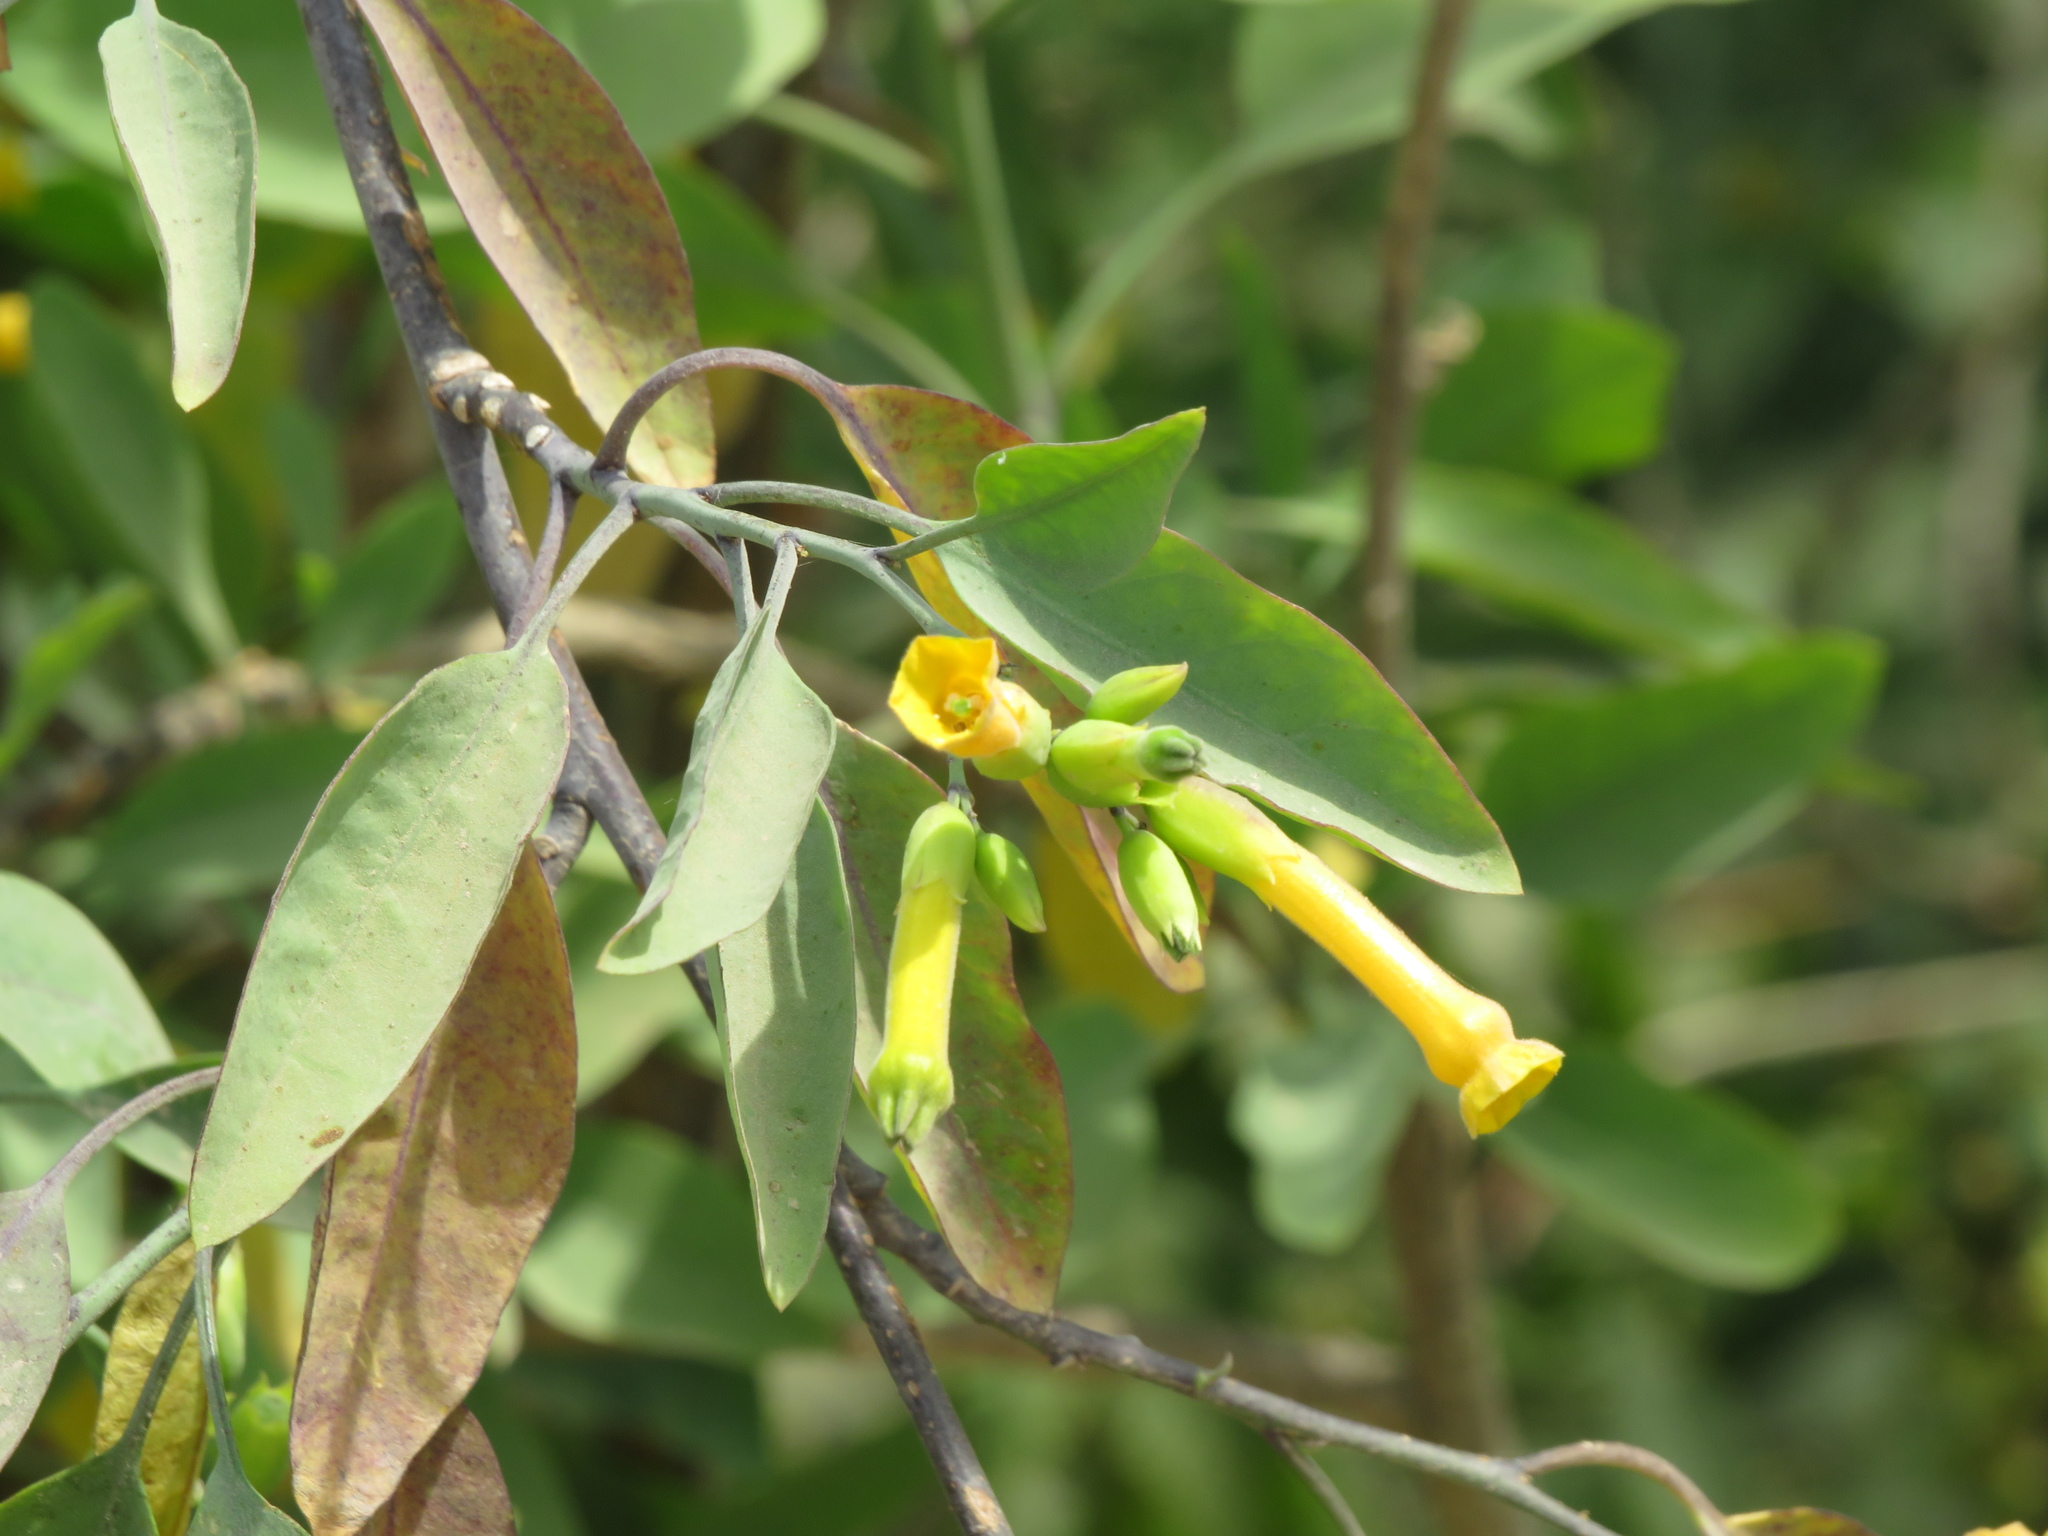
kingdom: Plantae
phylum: Tracheophyta
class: Magnoliopsida
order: Solanales
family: Solanaceae
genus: Nicotiana
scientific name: Nicotiana glauca
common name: Tree tobacco
